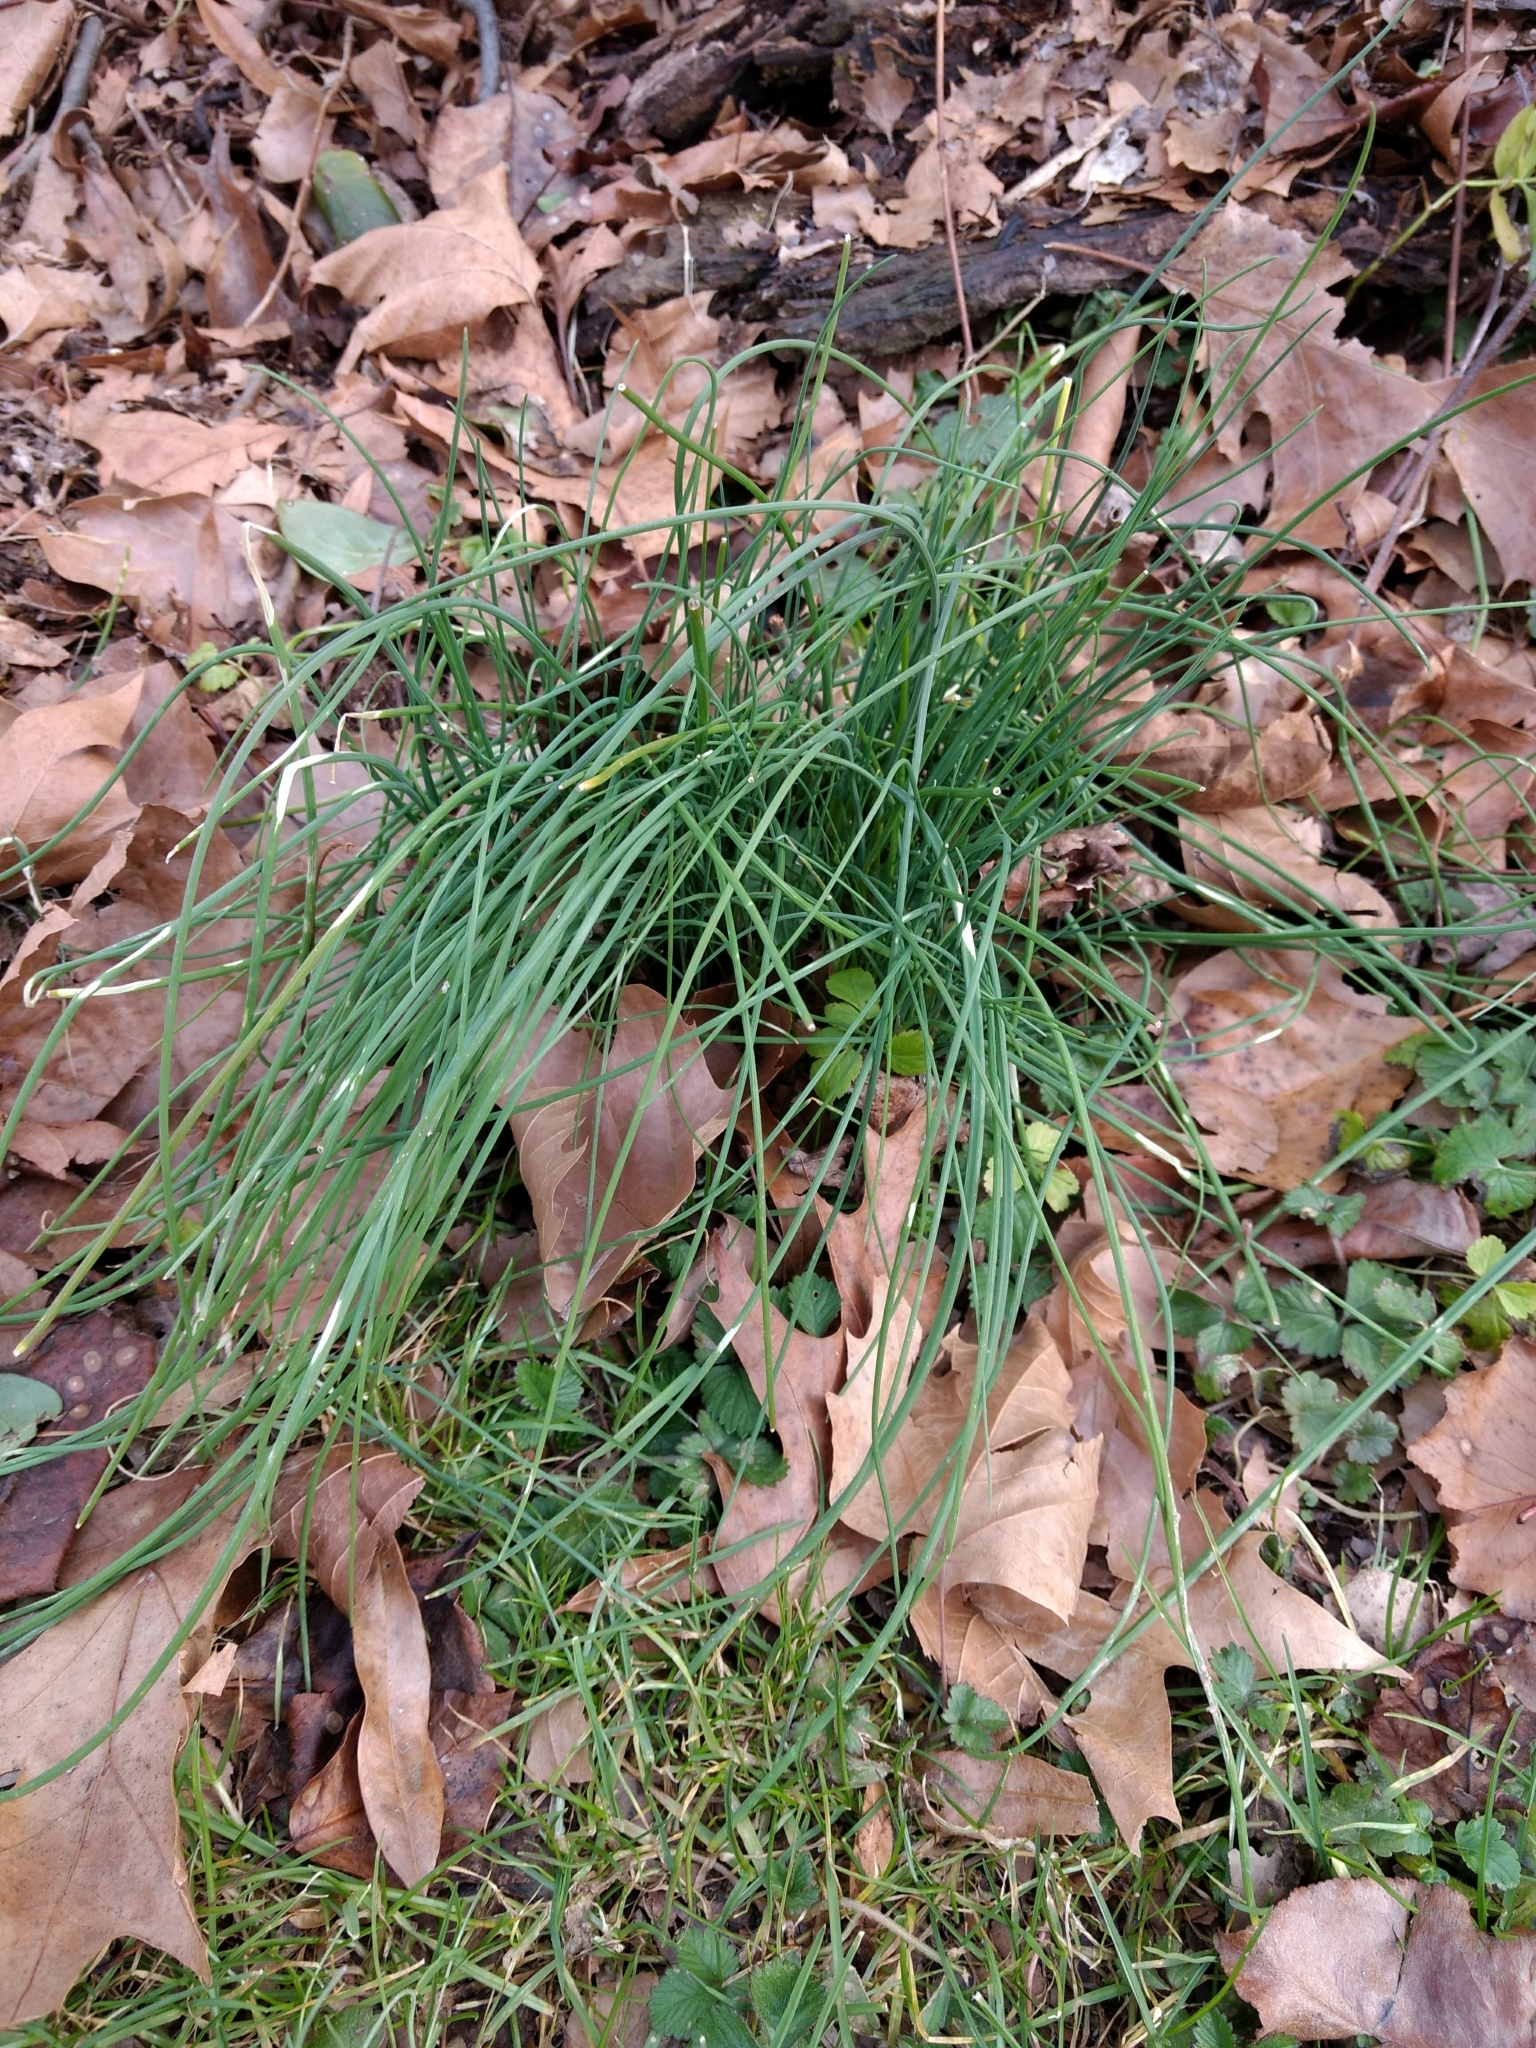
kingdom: Plantae
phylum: Tracheophyta
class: Liliopsida
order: Asparagales
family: Amaryllidaceae
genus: Allium
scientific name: Allium vineale
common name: Crow garlic
